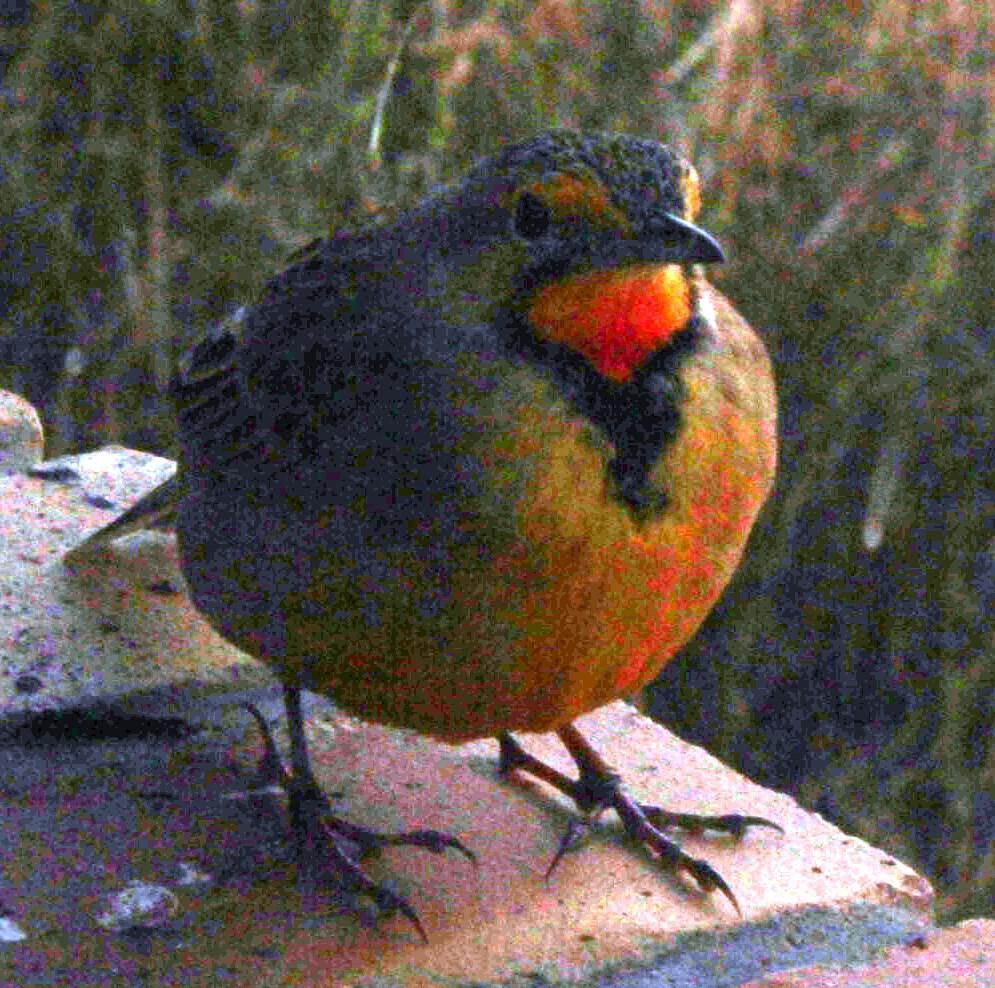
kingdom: Animalia
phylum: Chordata
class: Aves
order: Passeriformes
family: Motacillidae
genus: Macronyx
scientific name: Macronyx capensis
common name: Cape longclaw
